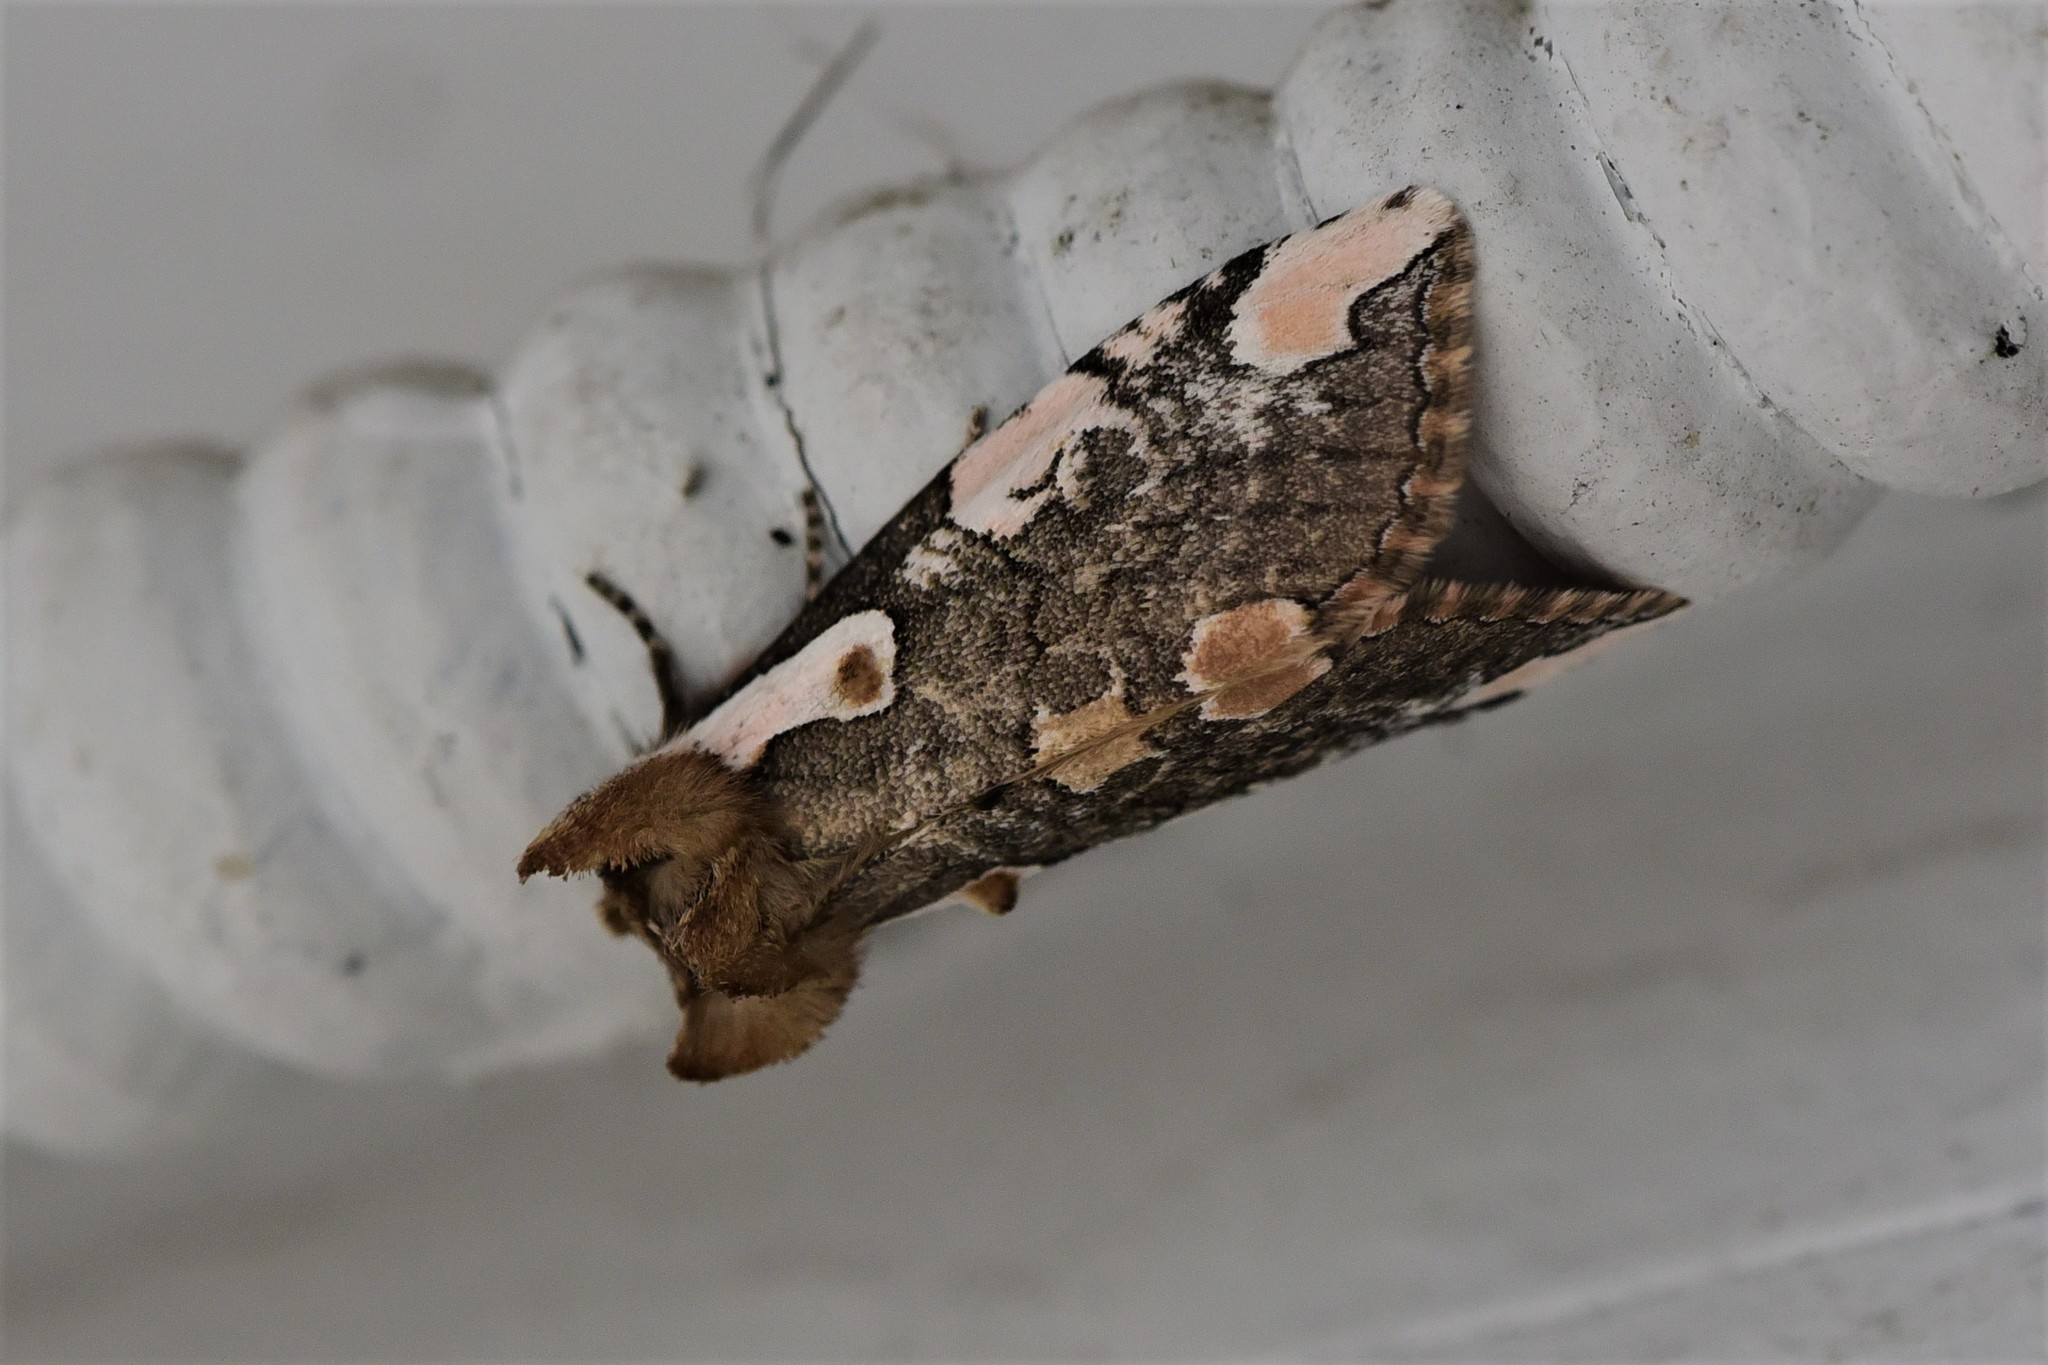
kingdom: Animalia
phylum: Arthropoda
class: Insecta
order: Lepidoptera
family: Drepanidae
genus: Euthyatira
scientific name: Euthyatira pudens
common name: Dogwood thyatirid moth
